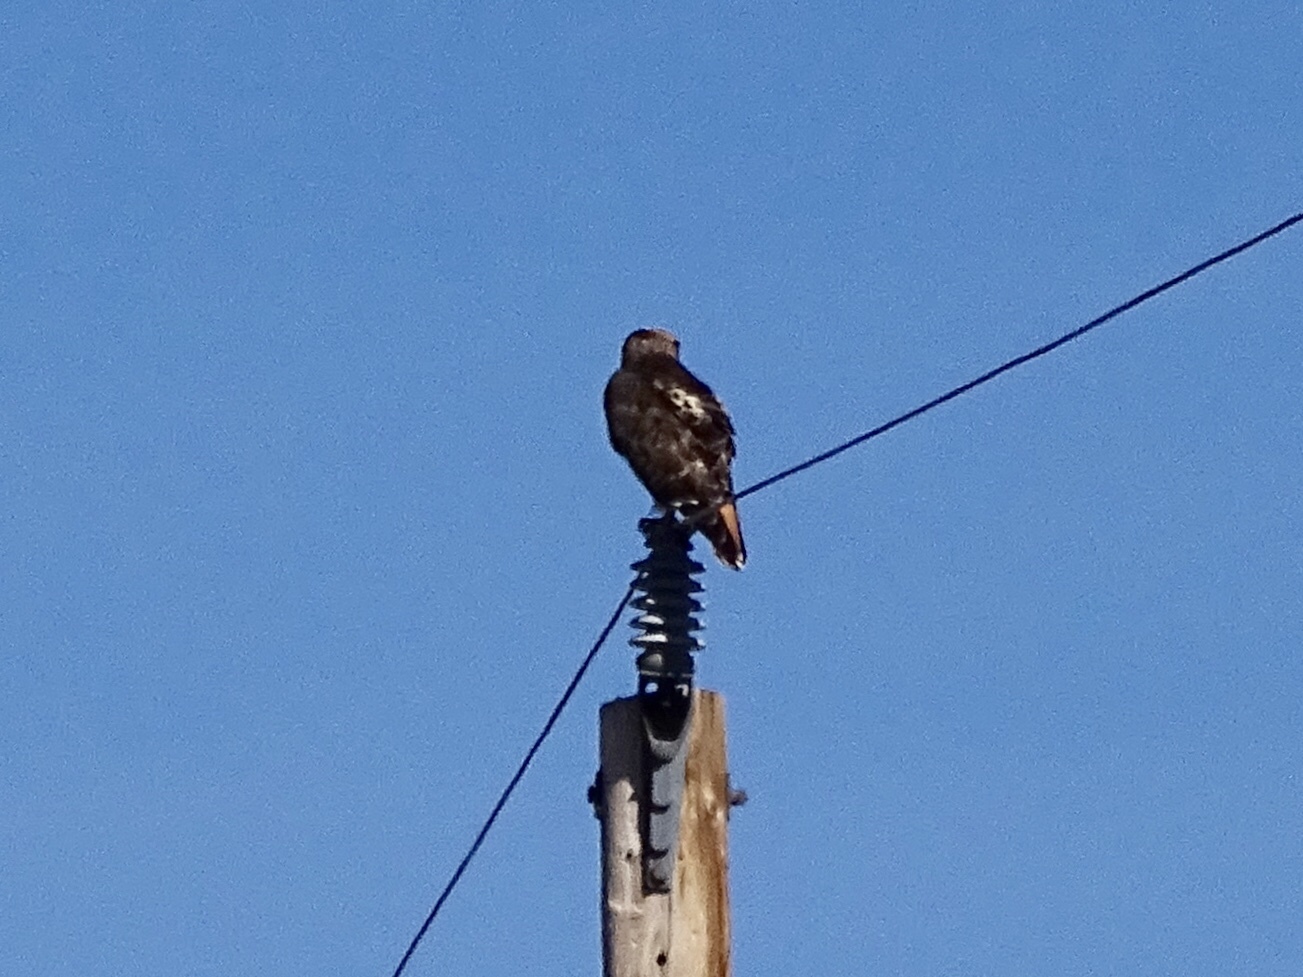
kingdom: Animalia
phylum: Chordata
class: Aves
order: Accipitriformes
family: Accipitridae
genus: Buteo
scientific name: Buteo jamaicensis
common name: Red-tailed hawk
